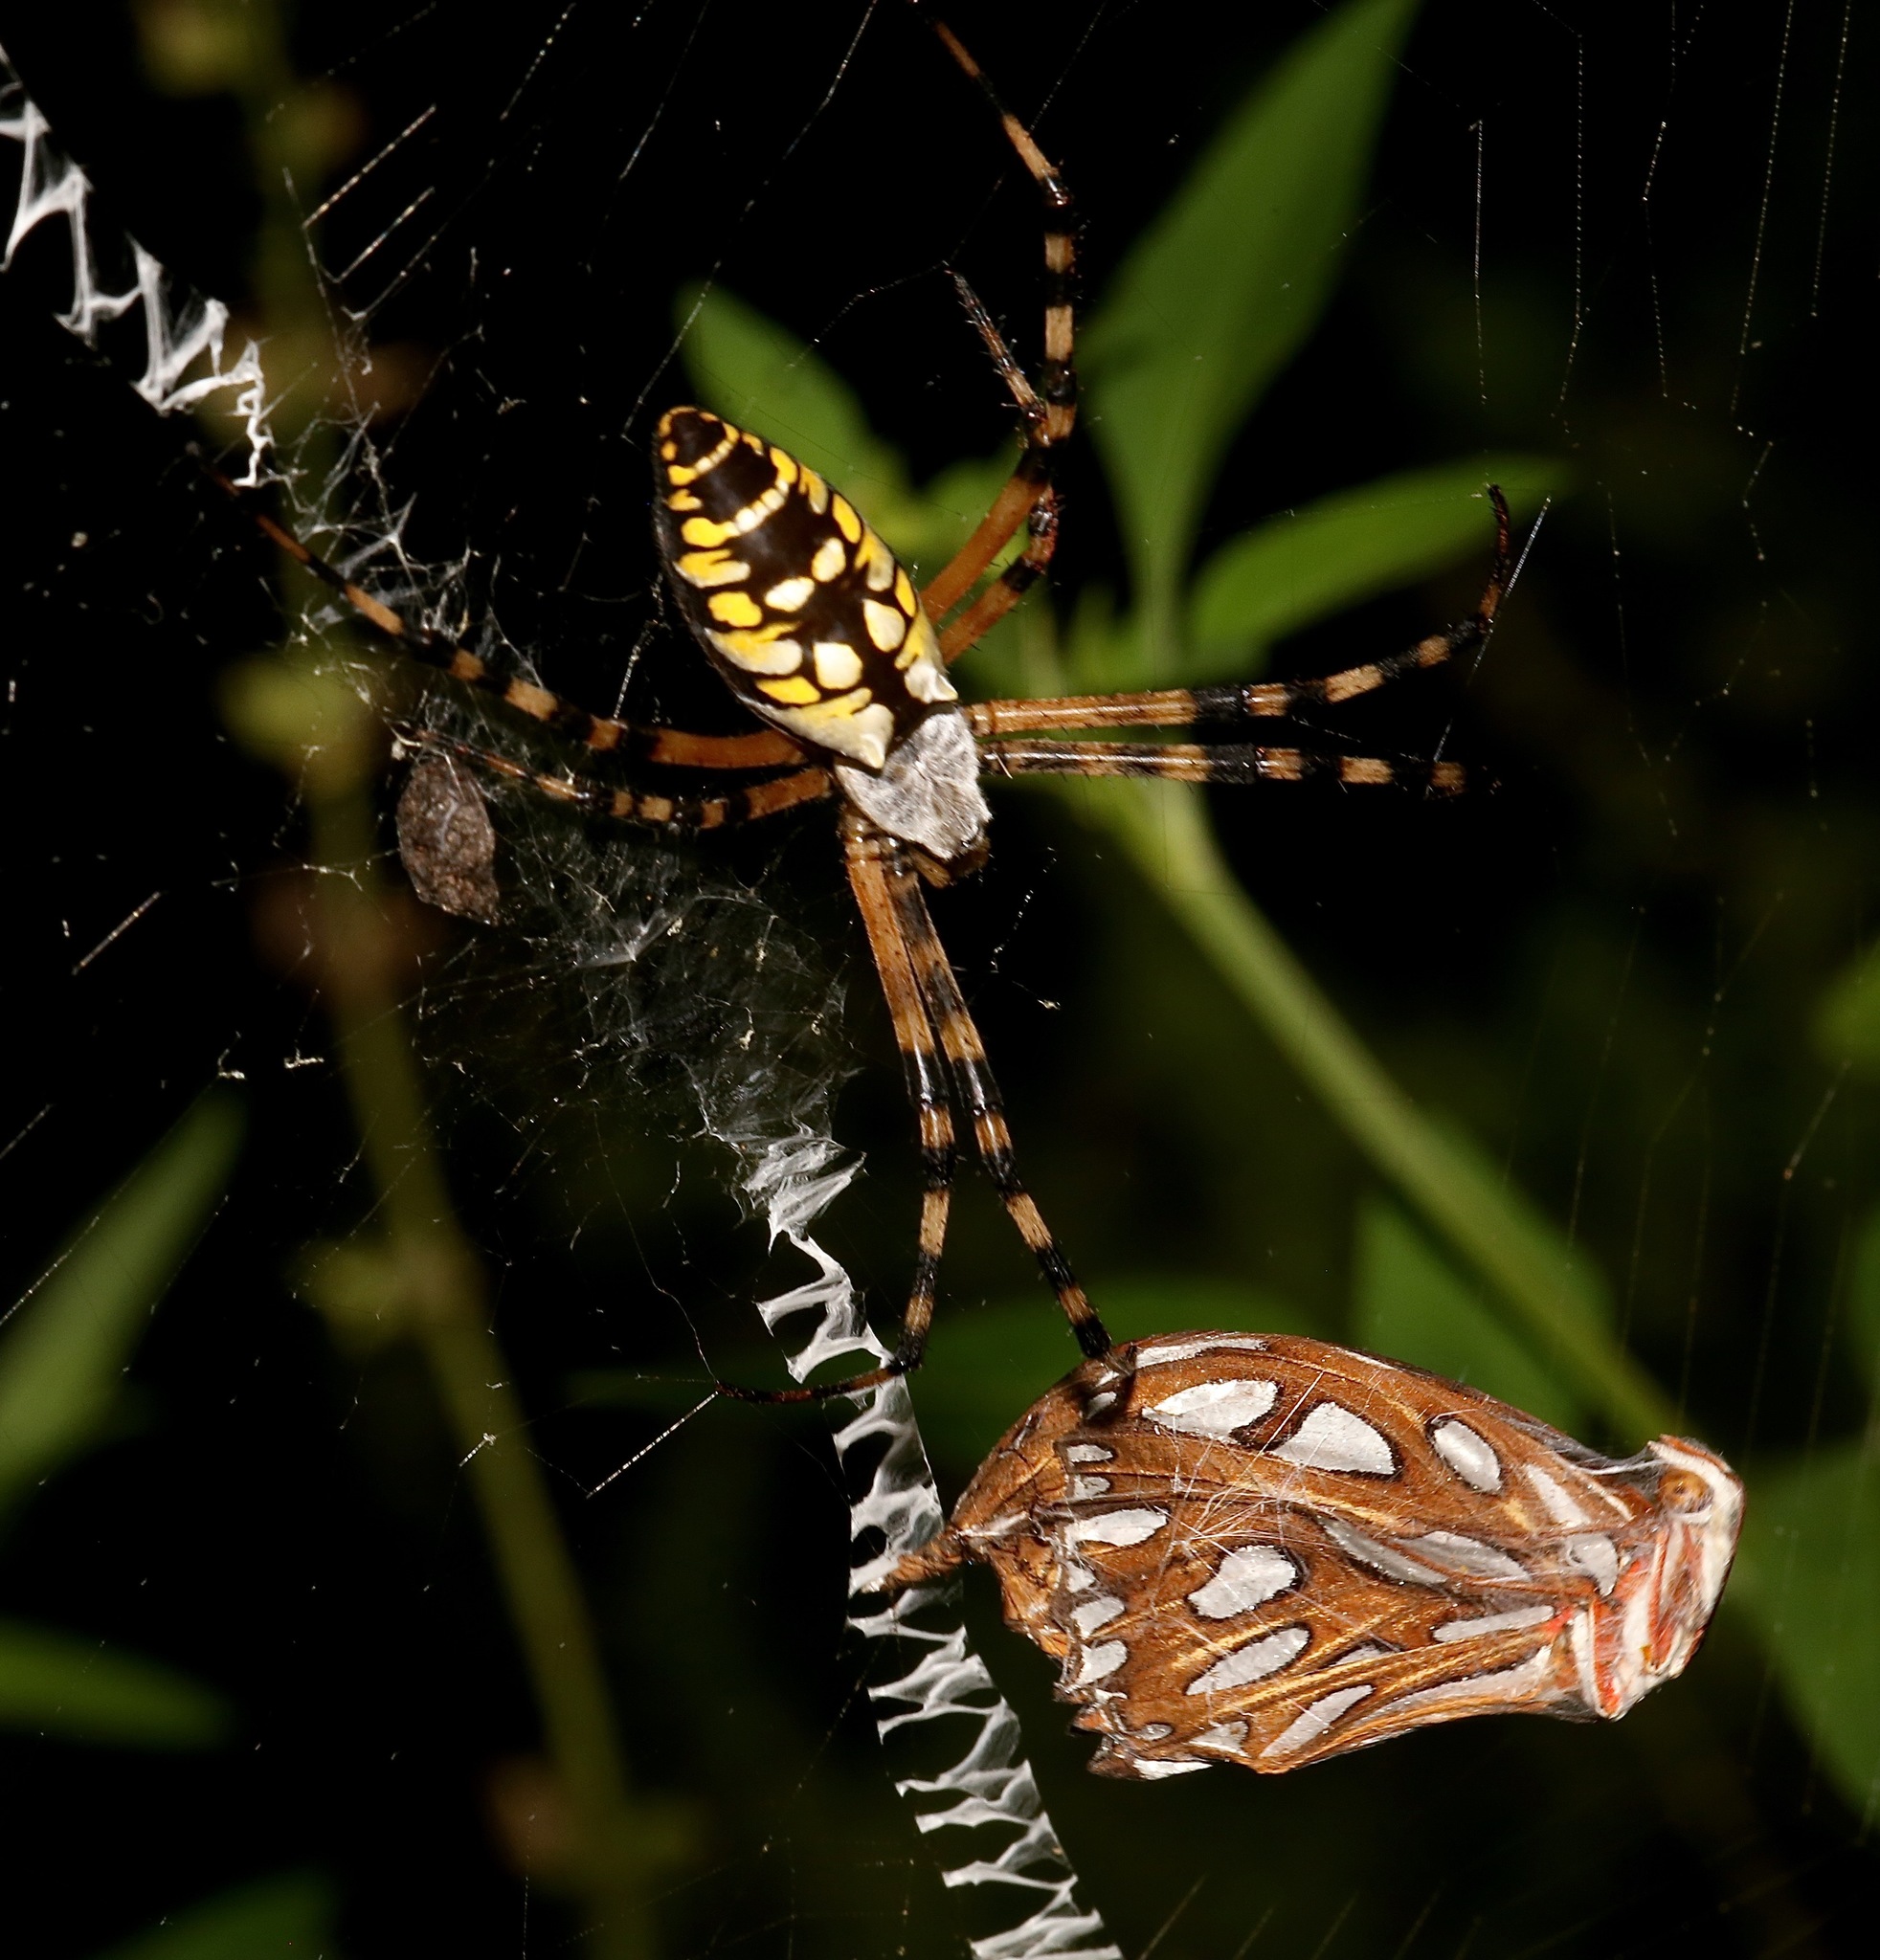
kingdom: Animalia
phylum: Arthropoda
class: Arachnida
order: Araneae
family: Araneidae
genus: Argiope
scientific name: Argiope aurantia
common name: Orb weavers
